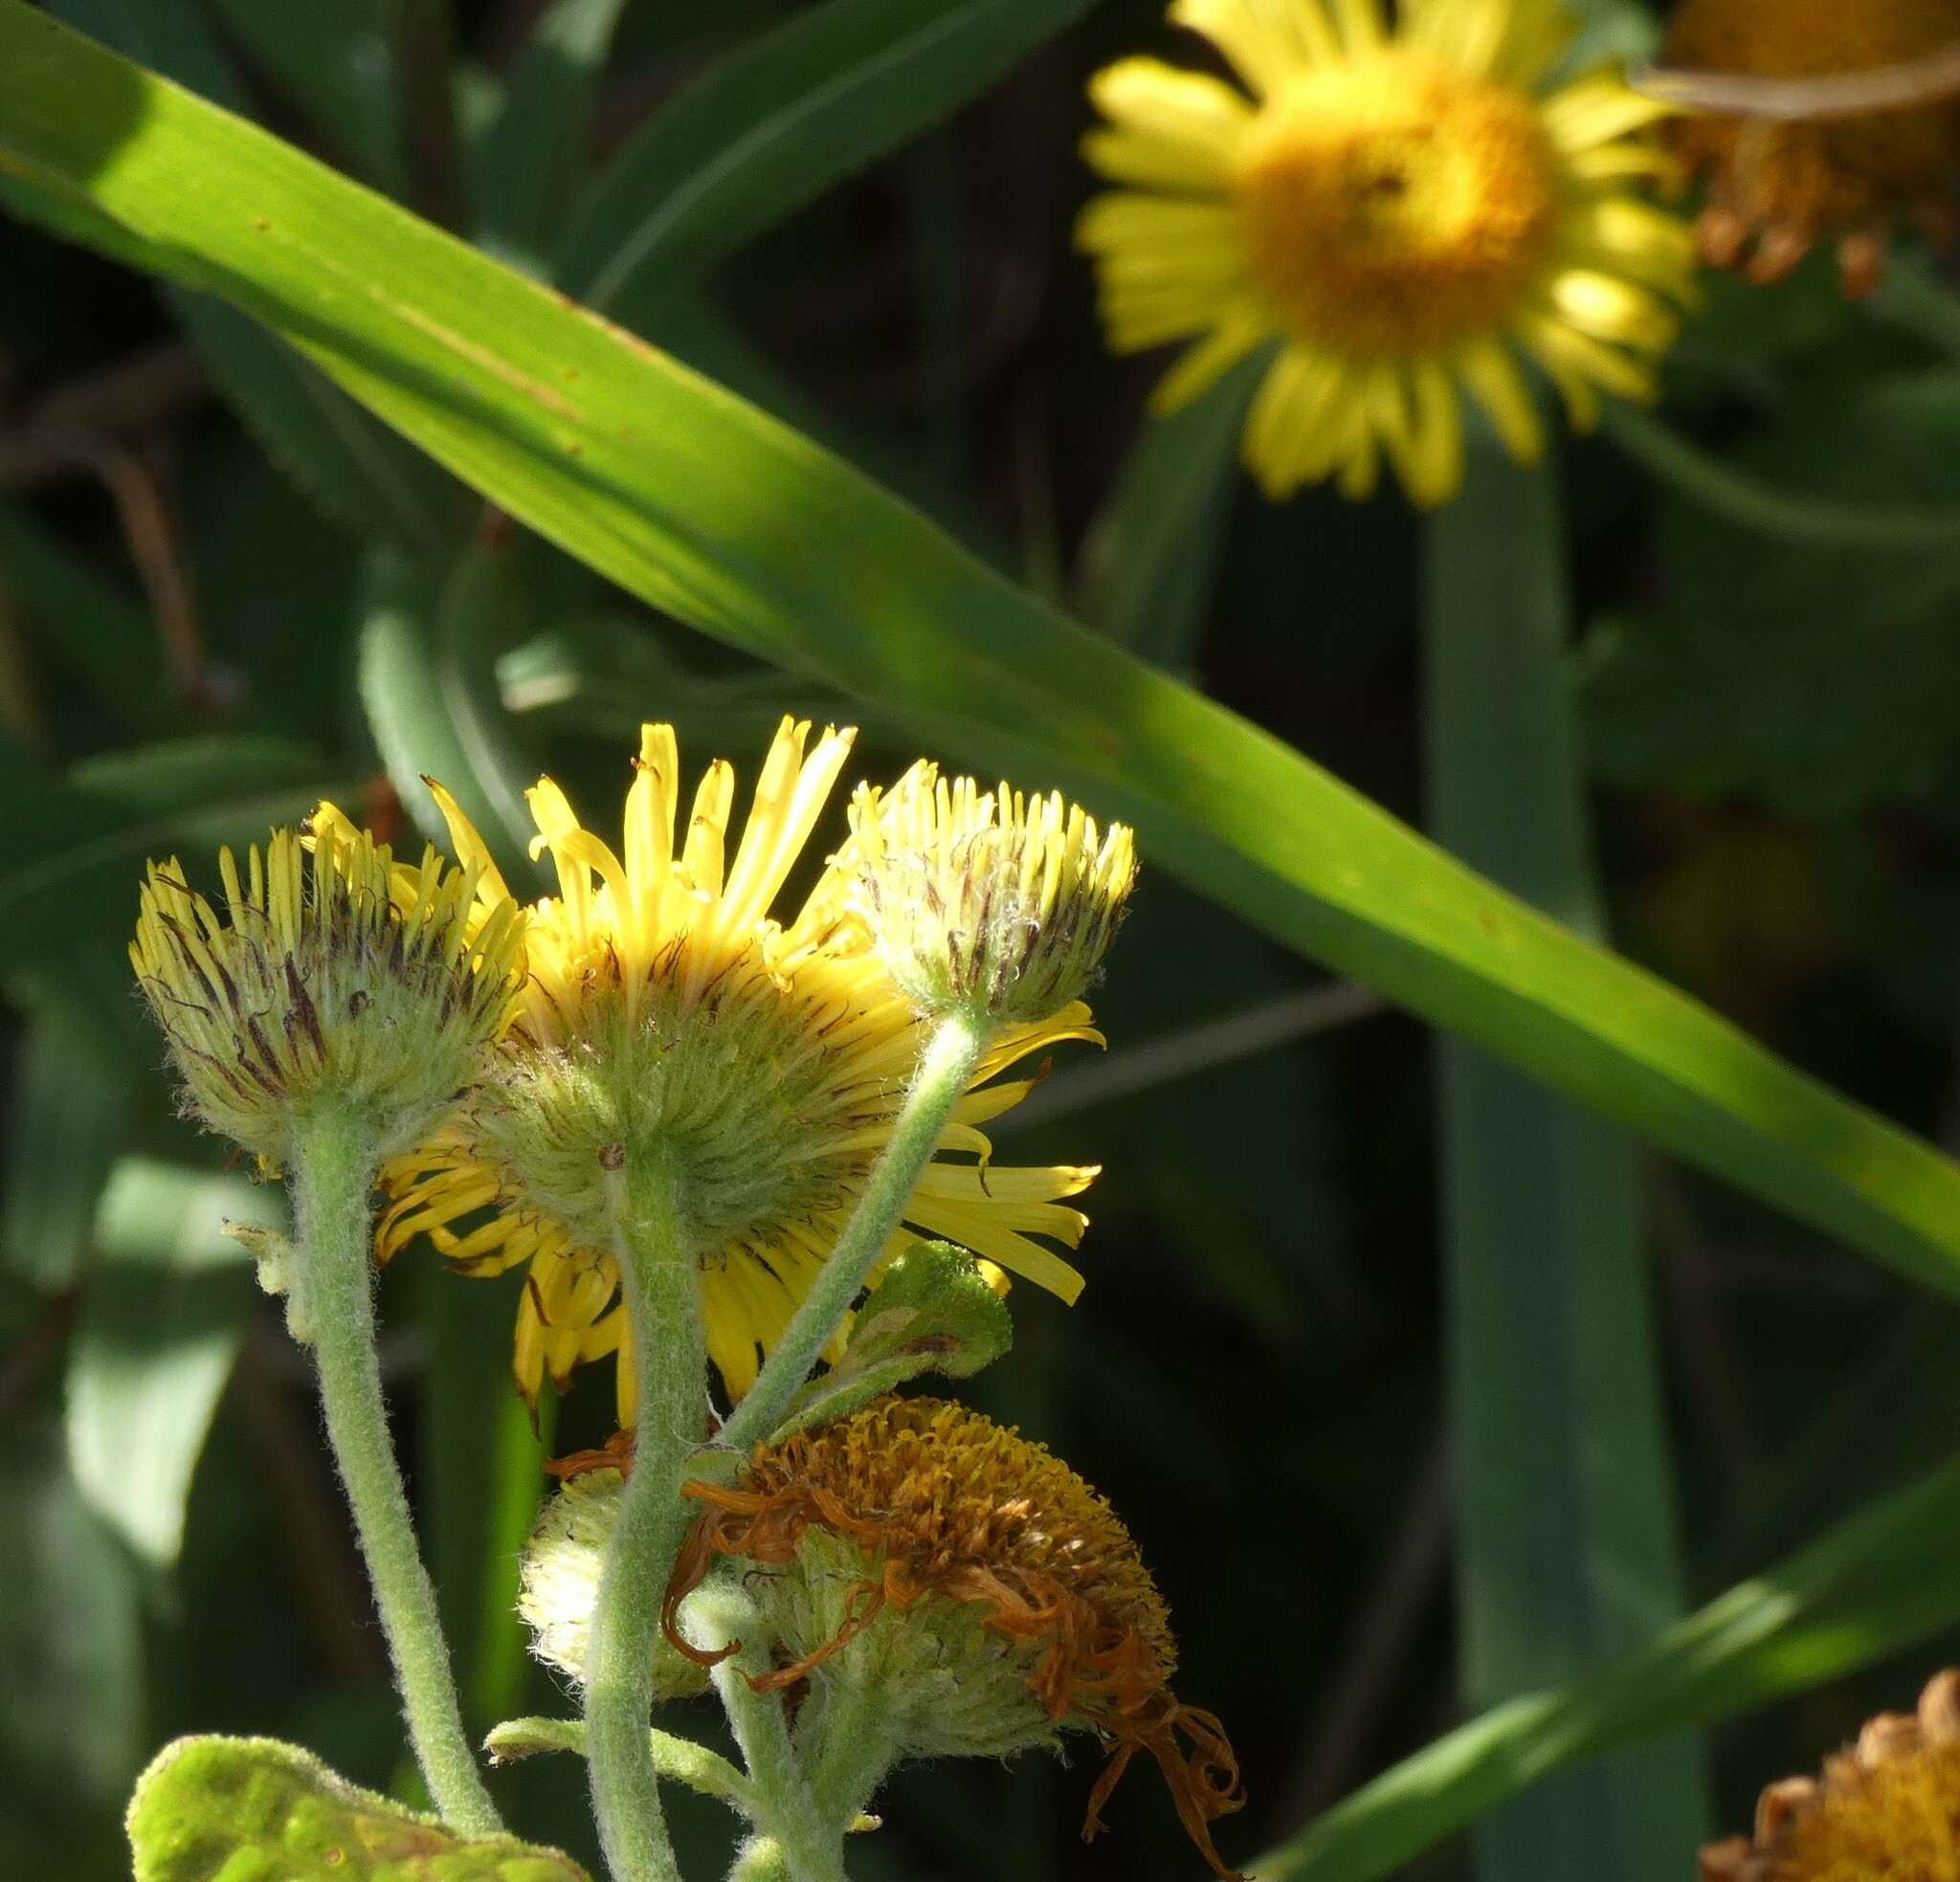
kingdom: Plantae
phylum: Tracheophyta
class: Magnoliopsida
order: Asterales
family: Asteraceae
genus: Pulicaria
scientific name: Pulicaria dysenterica
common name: Common fleabane
